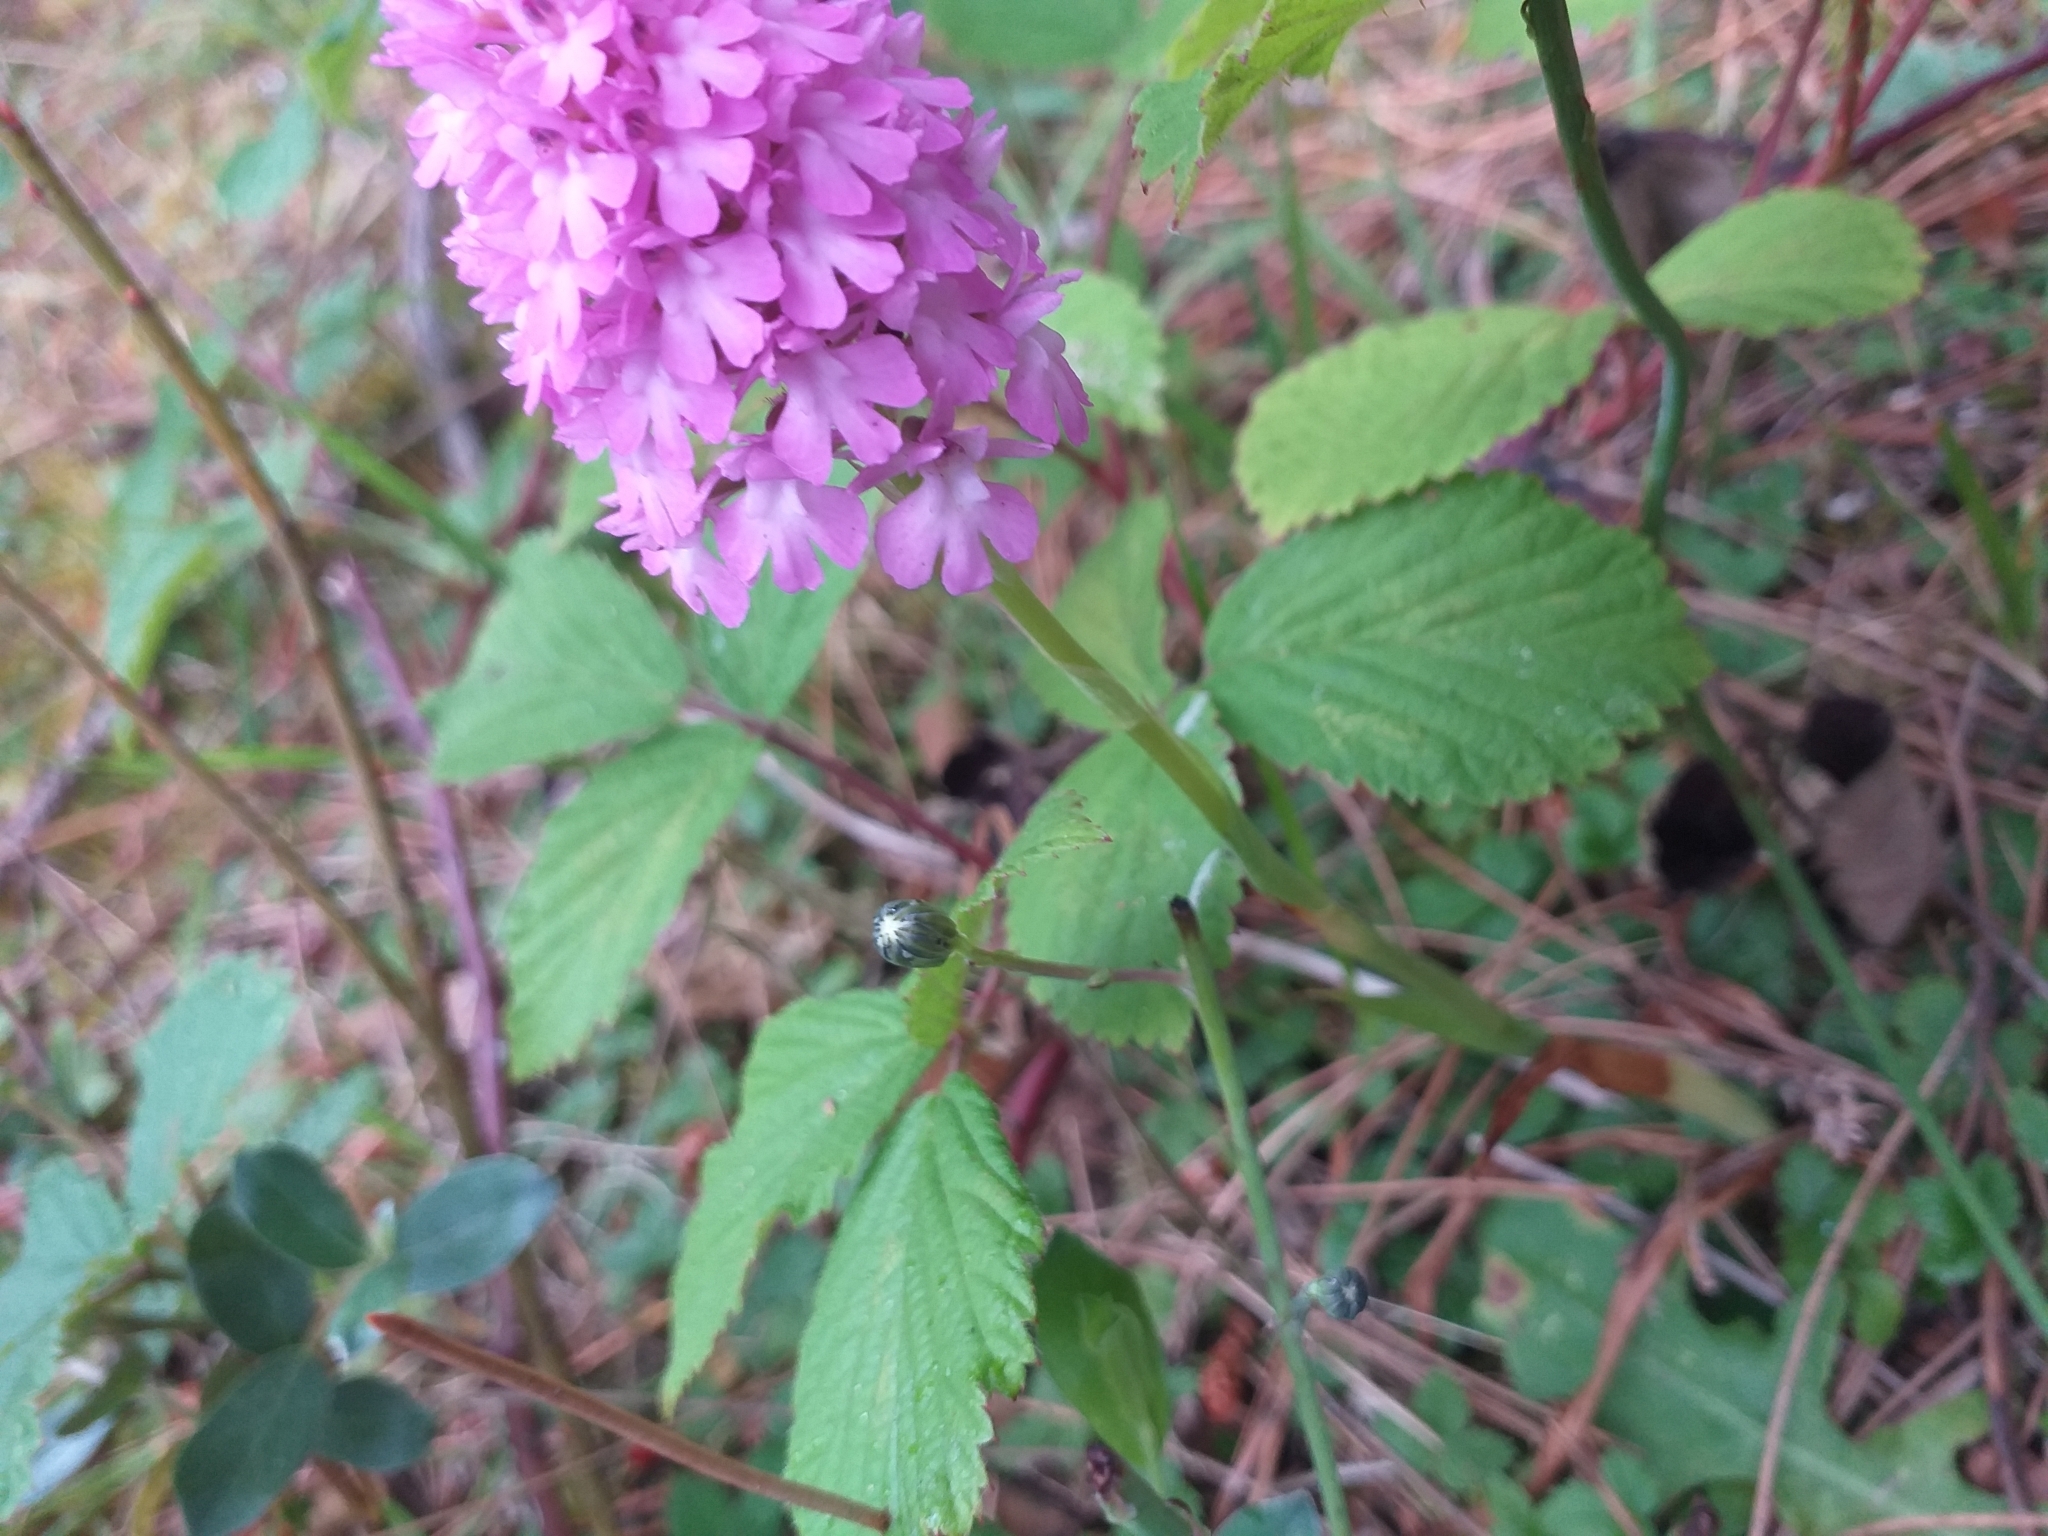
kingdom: Plantae
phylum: Tracheophyta
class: Liliopsida
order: Asparagales
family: Orchidaceae
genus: Anacamptis
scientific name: Anacamptis pyramidalis
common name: Pyramidal orchid
